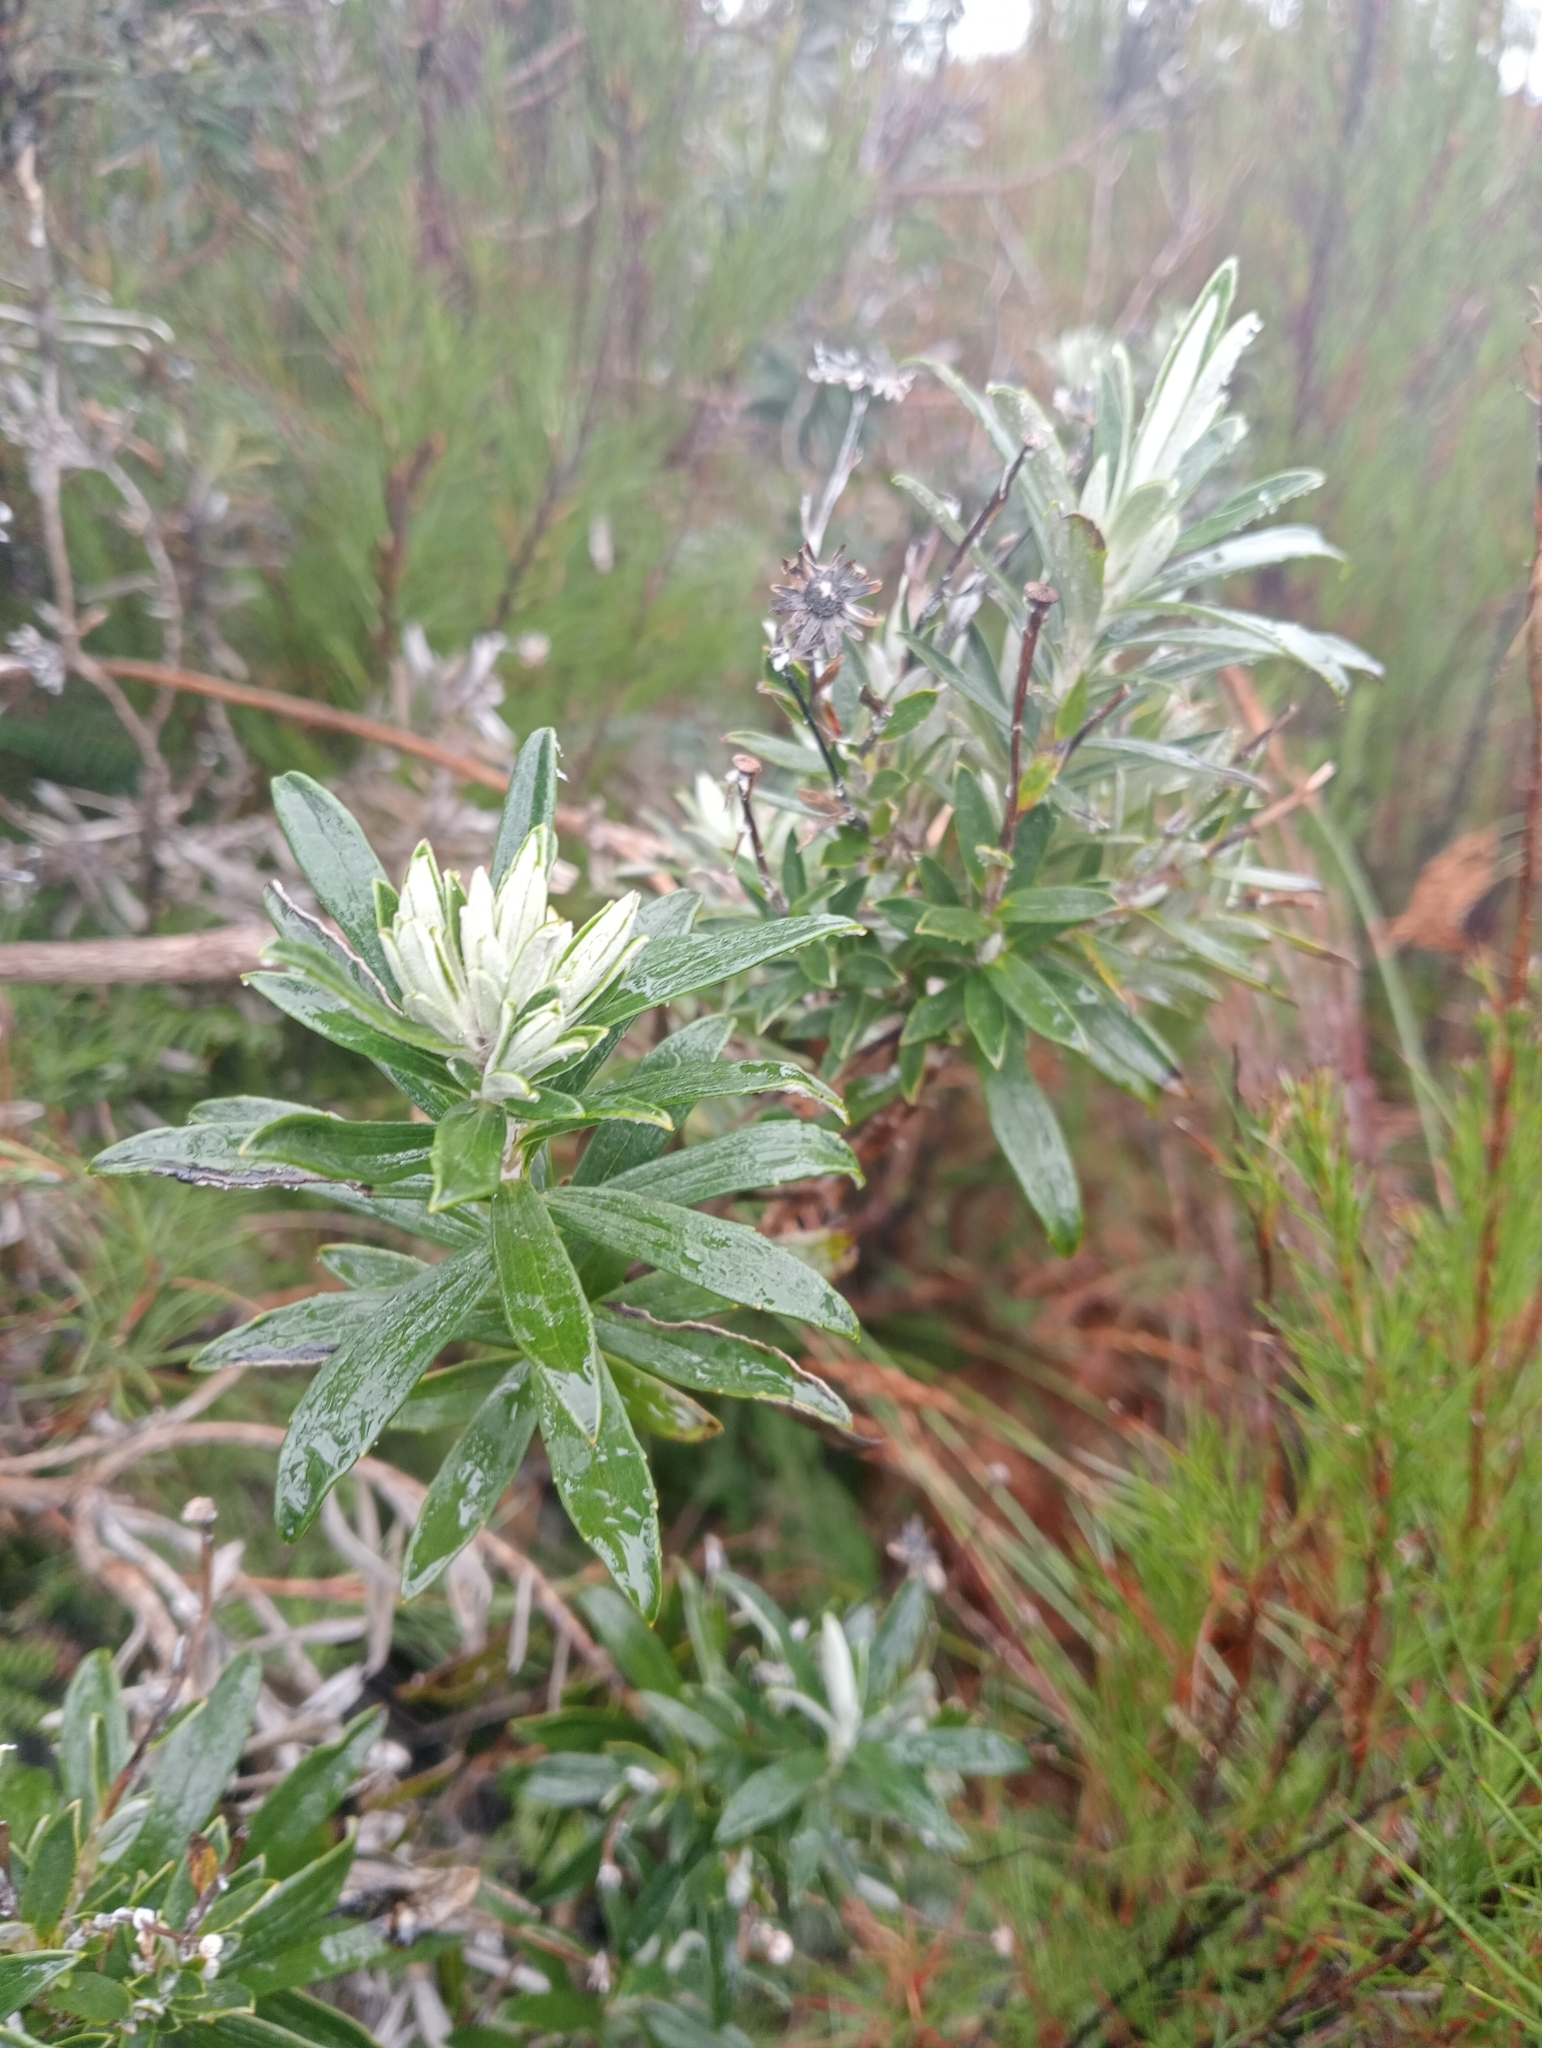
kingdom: Plantae
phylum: Tracheophyta
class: Magnoliopsida
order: Asterales
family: Asteraceae
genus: Macrolearia
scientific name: Macrolearia semidentata
